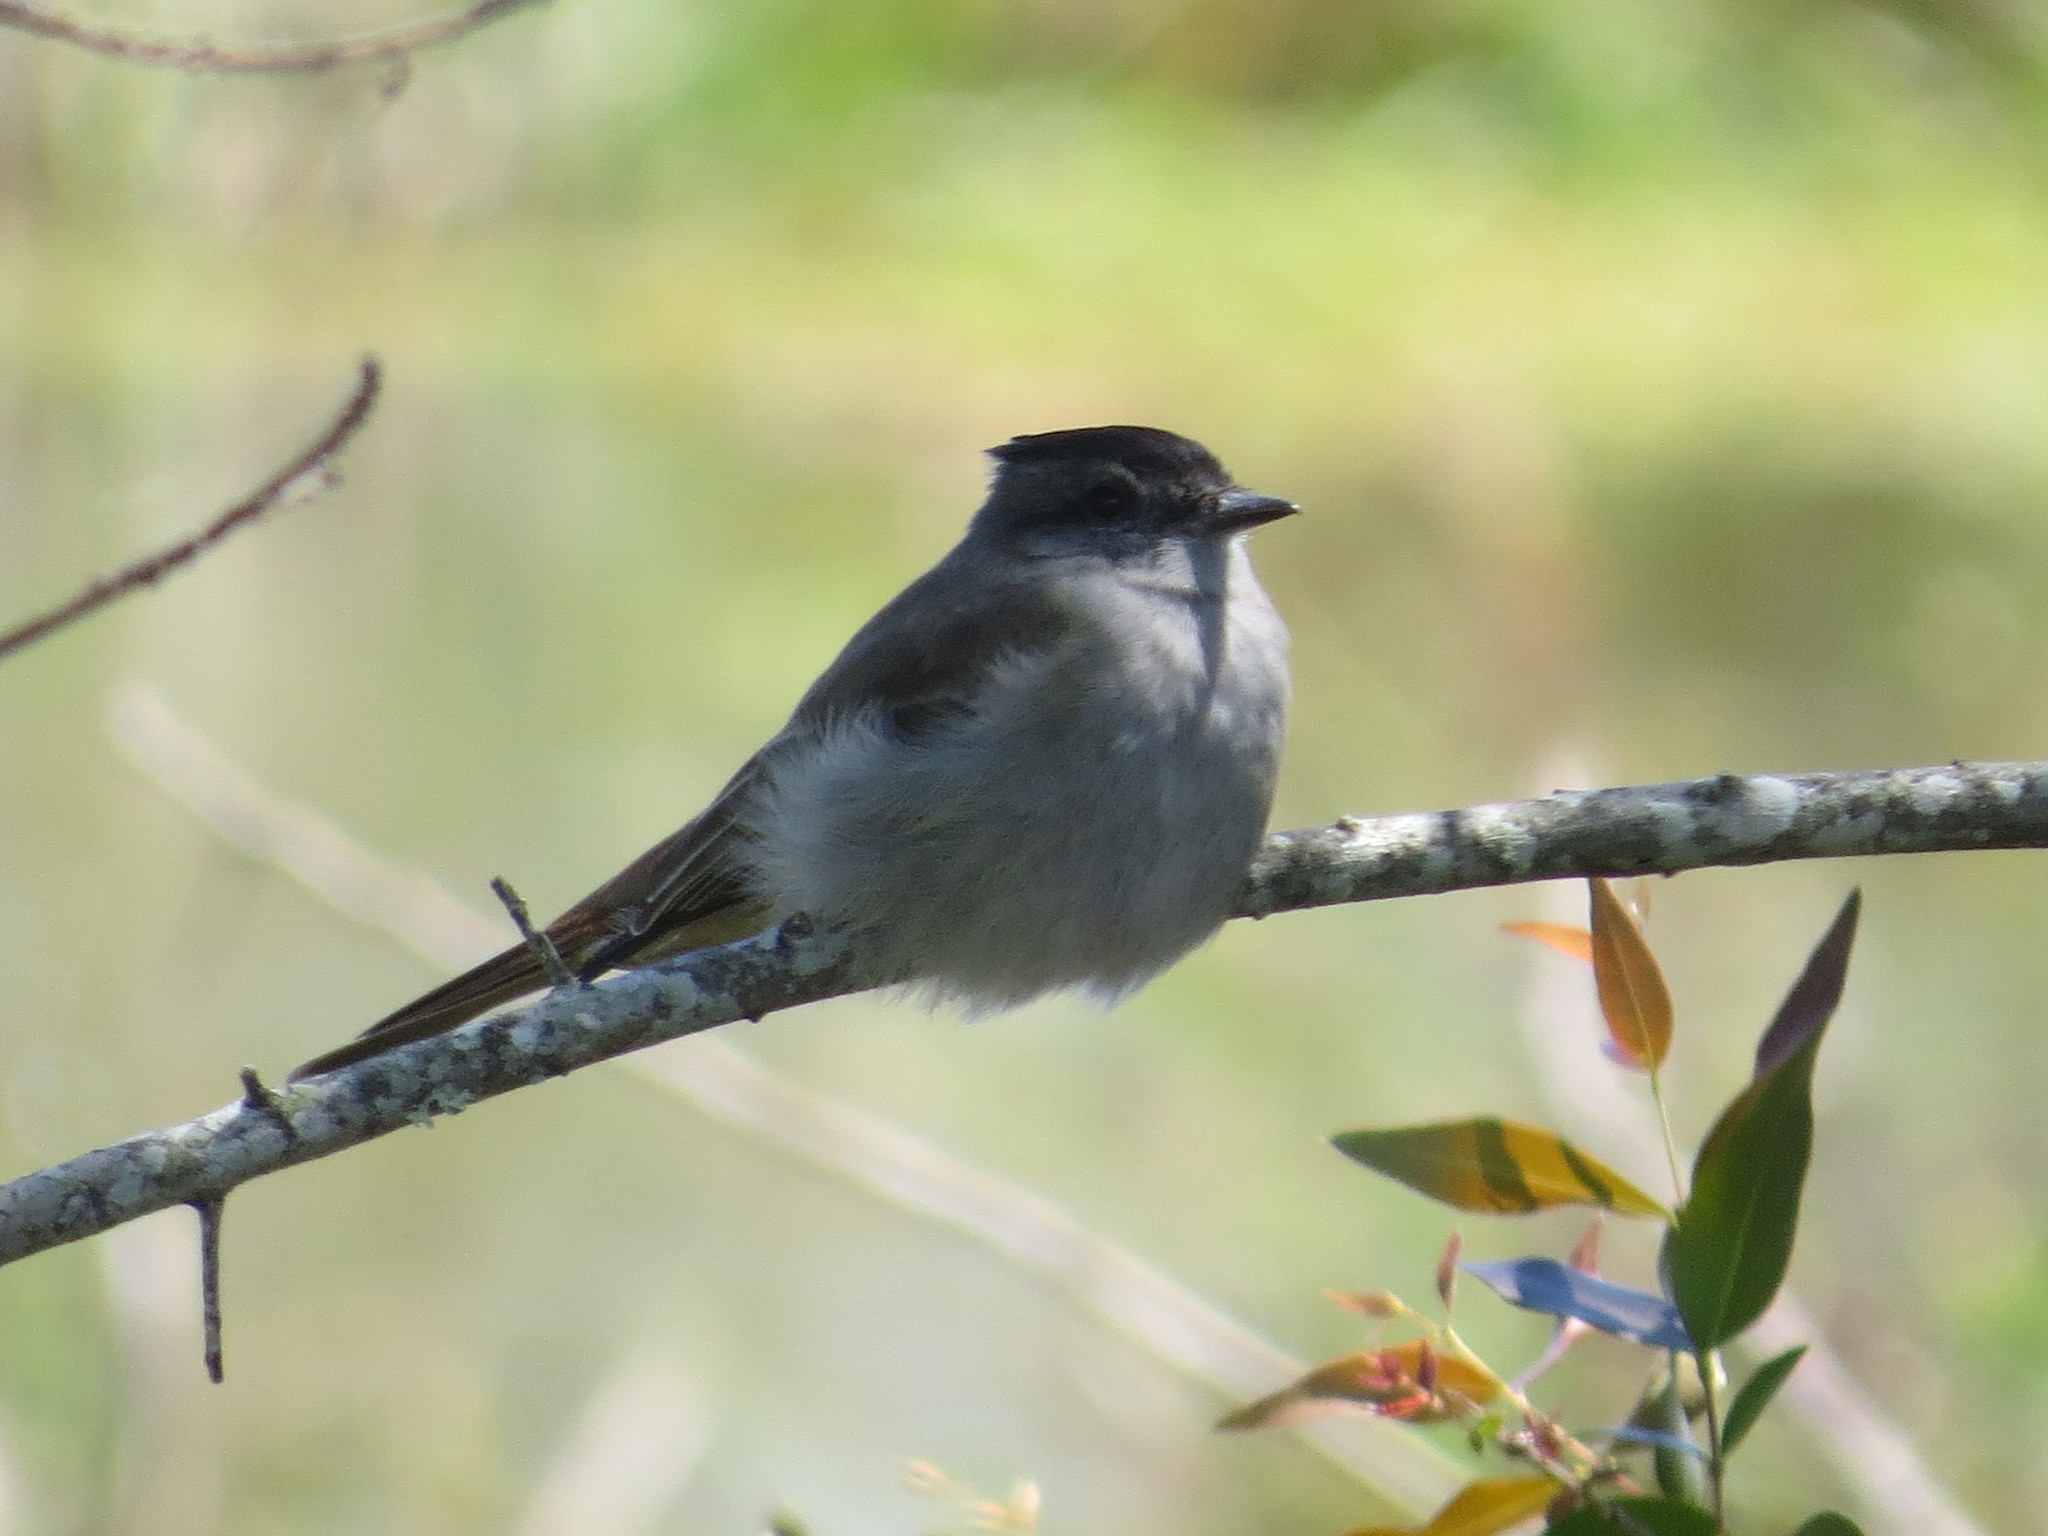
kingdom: Animalia
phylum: Chordata
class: Aves
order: Passeriformes
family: Tyrannidae
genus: Empidonomus
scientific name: Empidonomus aurantioatrocristatus
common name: Crowned slaty flycatcher
